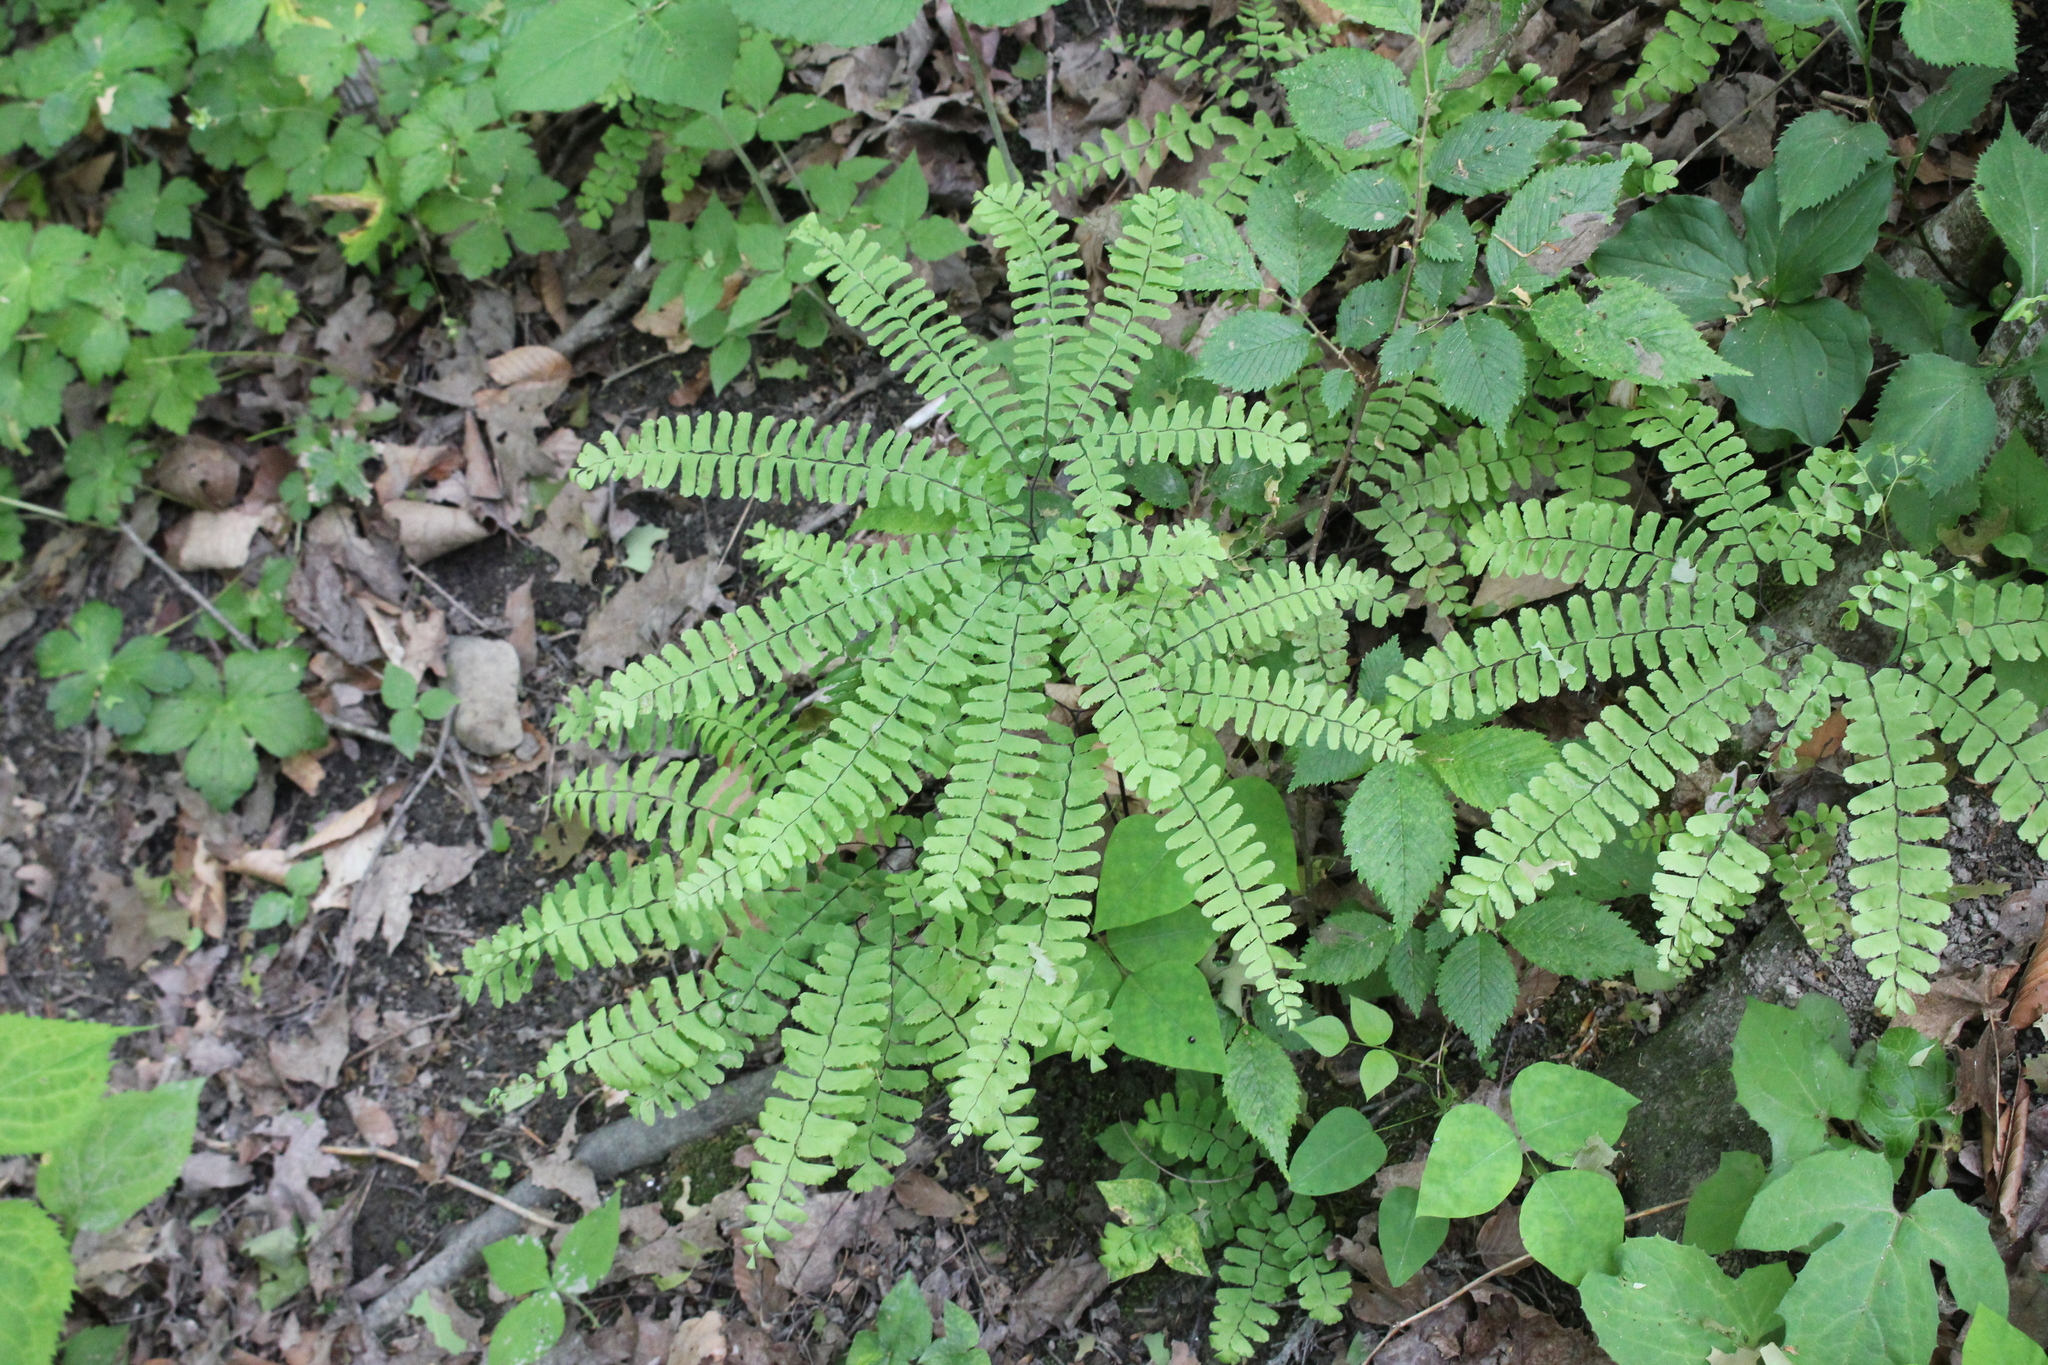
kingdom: Plantae
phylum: Tracheophyta
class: Polypodiopsida
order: Polypodiales
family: Pteridaceae
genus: Adiantum
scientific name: Adiantum pedatum
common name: Five-finger fern
